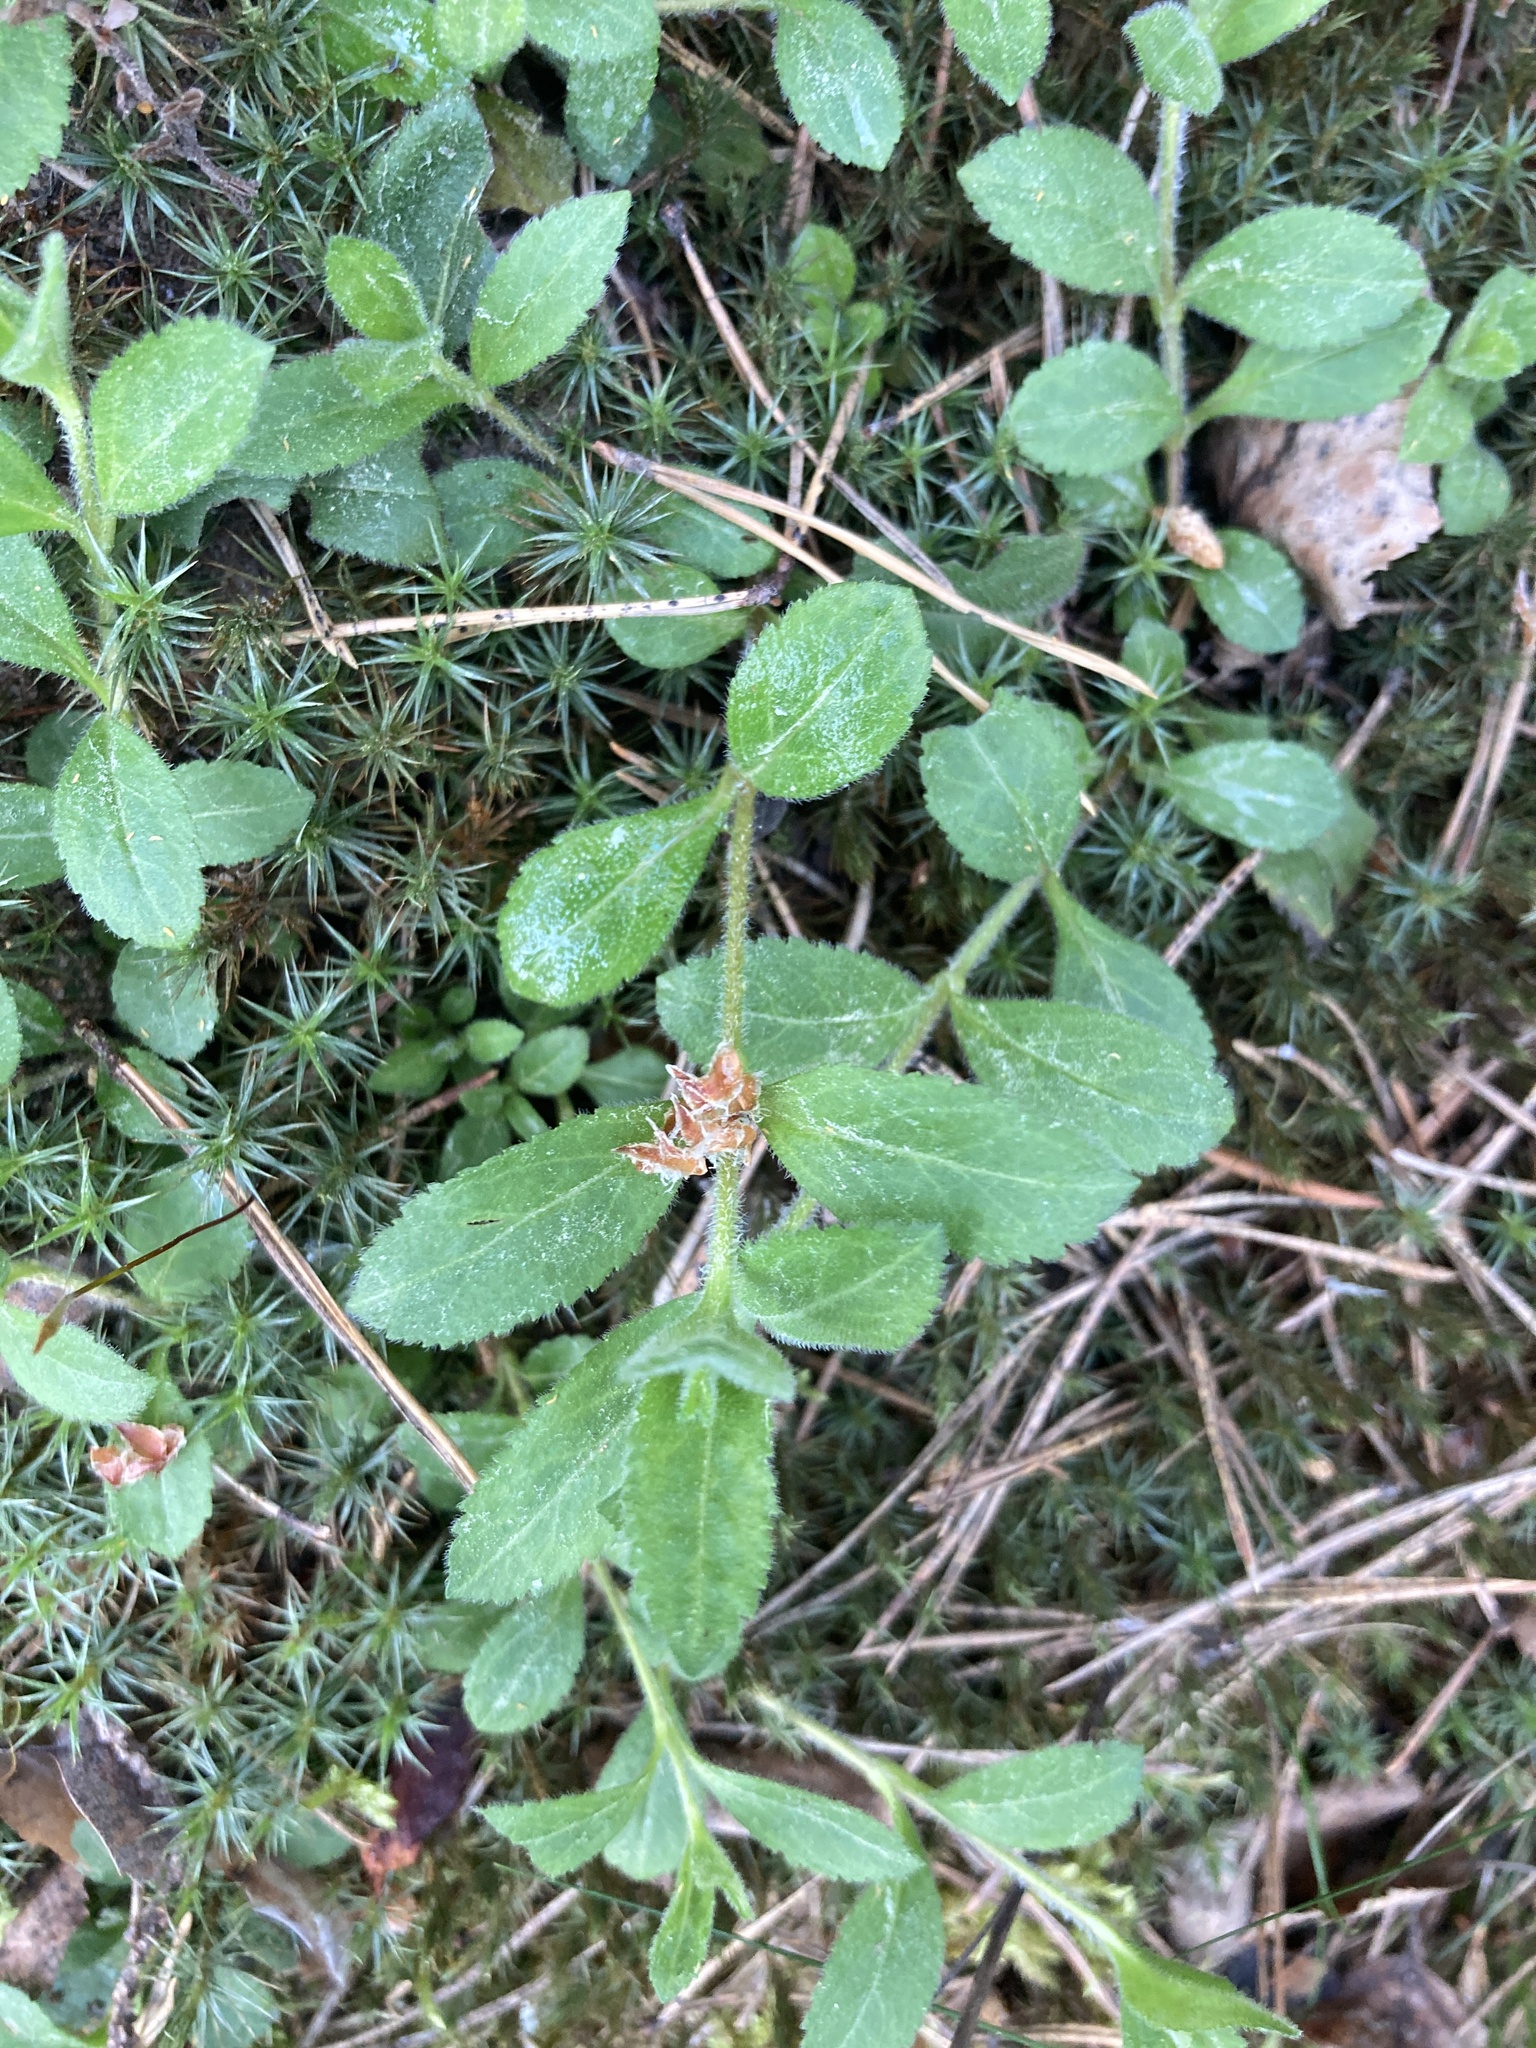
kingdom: Plantae
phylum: Tracheophyta
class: Magnoliopsida
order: Lamiales
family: Plantaginaceae
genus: Veronica
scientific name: Veronica officinalis
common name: Common speedwell
